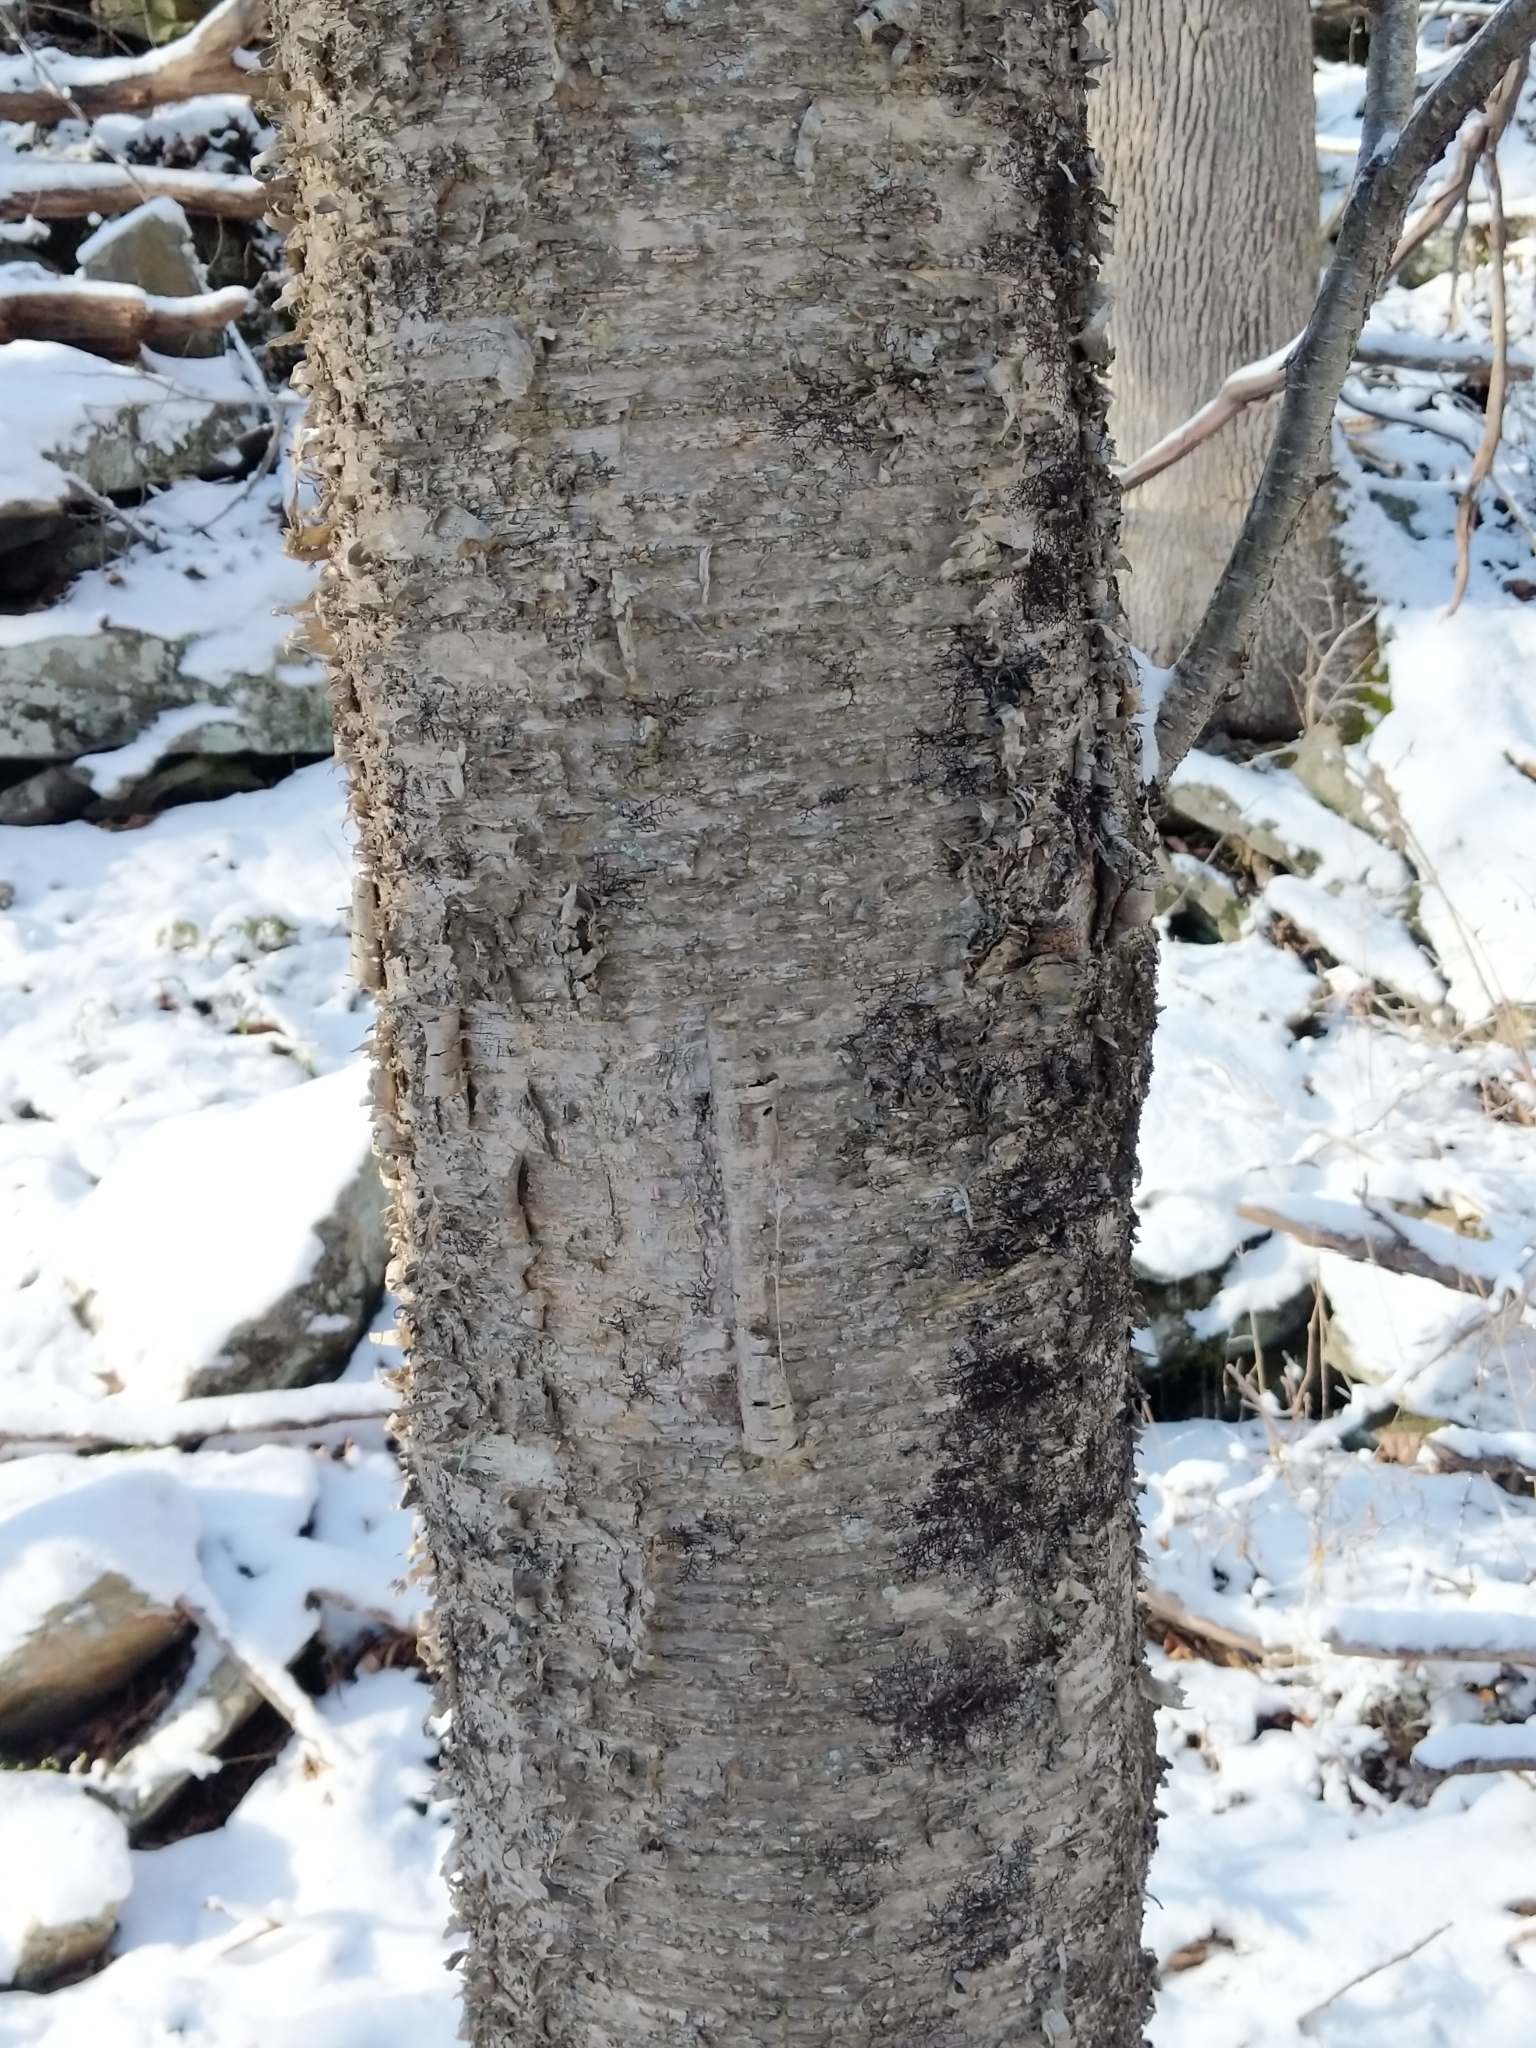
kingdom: Plantae
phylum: Tracheophyta
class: Magnoliopsida
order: Fagales
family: Betulaceae
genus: Betula
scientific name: Betula alleghaniensis
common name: Yellow birch
